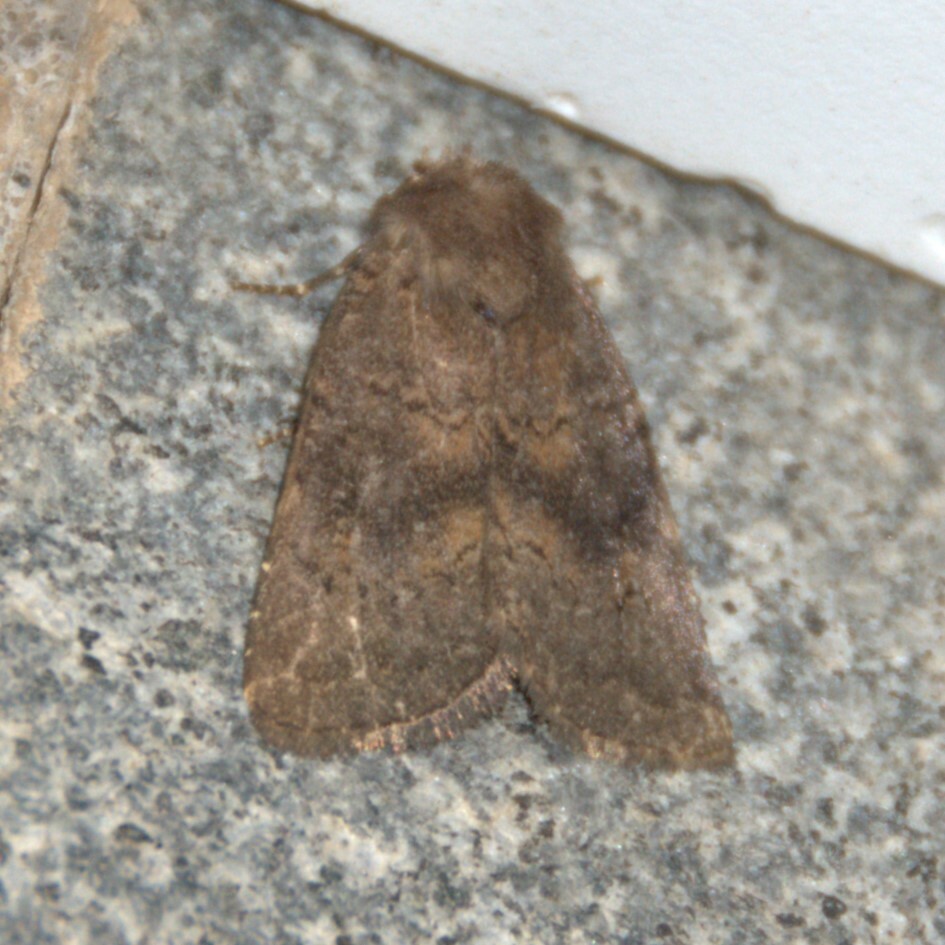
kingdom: Animalia
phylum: Arthropoda
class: Insecta
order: Lepidoptera
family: Noctuidae
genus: Charanyca
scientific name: Charanyca ferruginea
